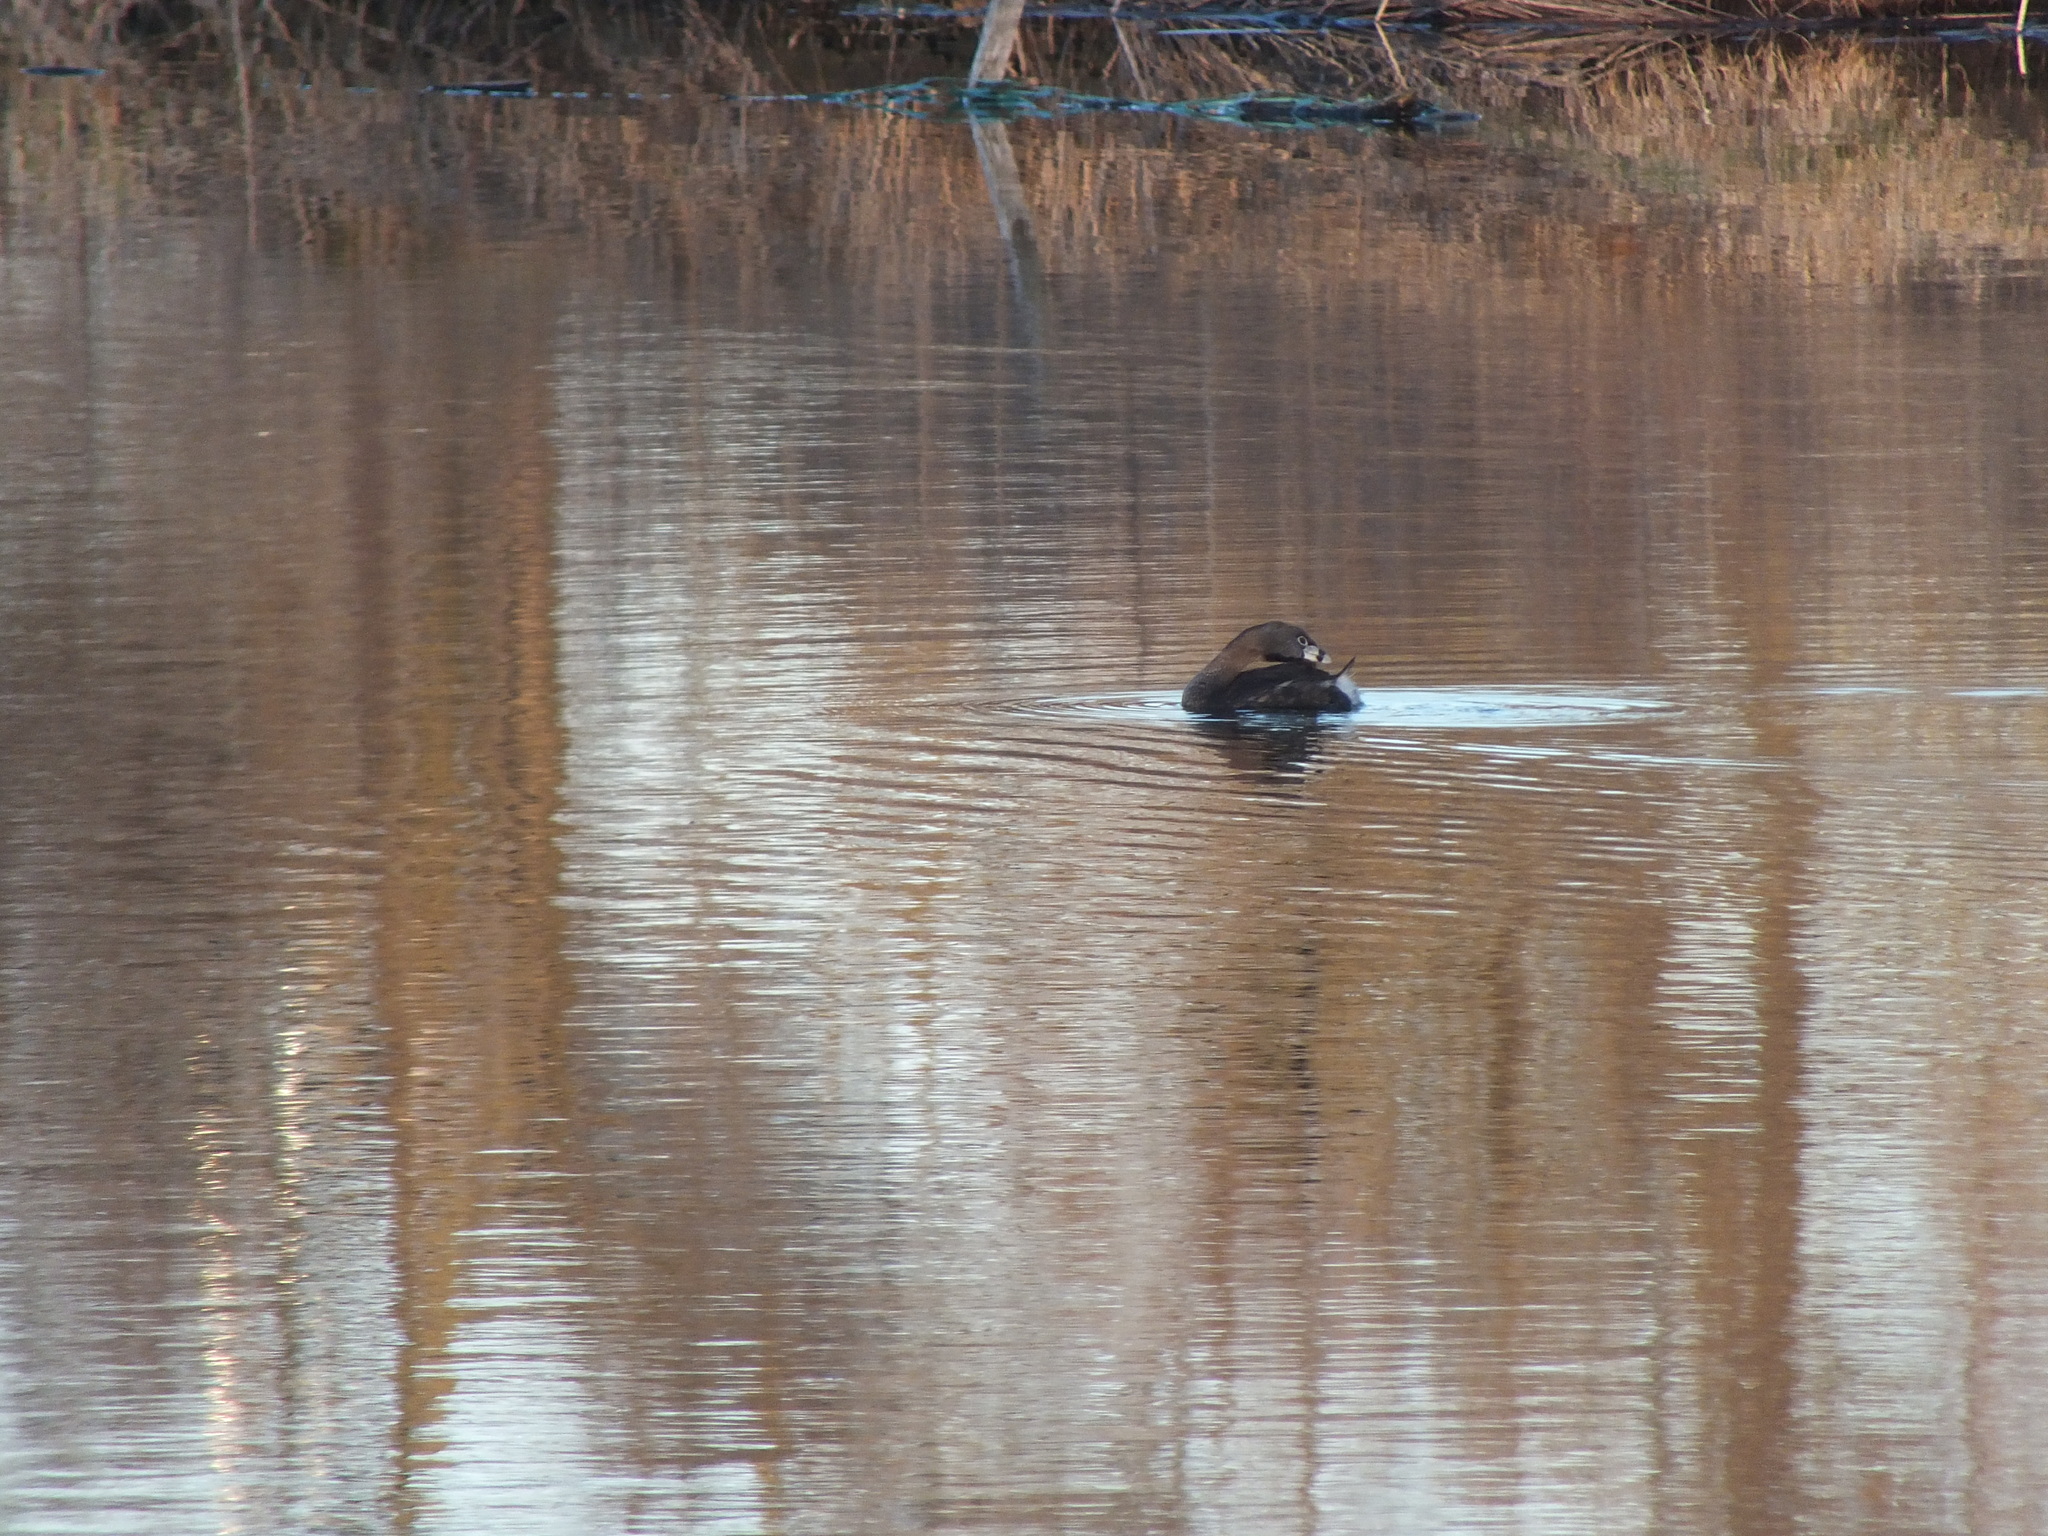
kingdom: Animalia
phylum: Chordata
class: Aves
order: Podicipediformes
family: Podicipedidae
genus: Podilymbus
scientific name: Podilymbus podiceps
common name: Pied-billed grebe
